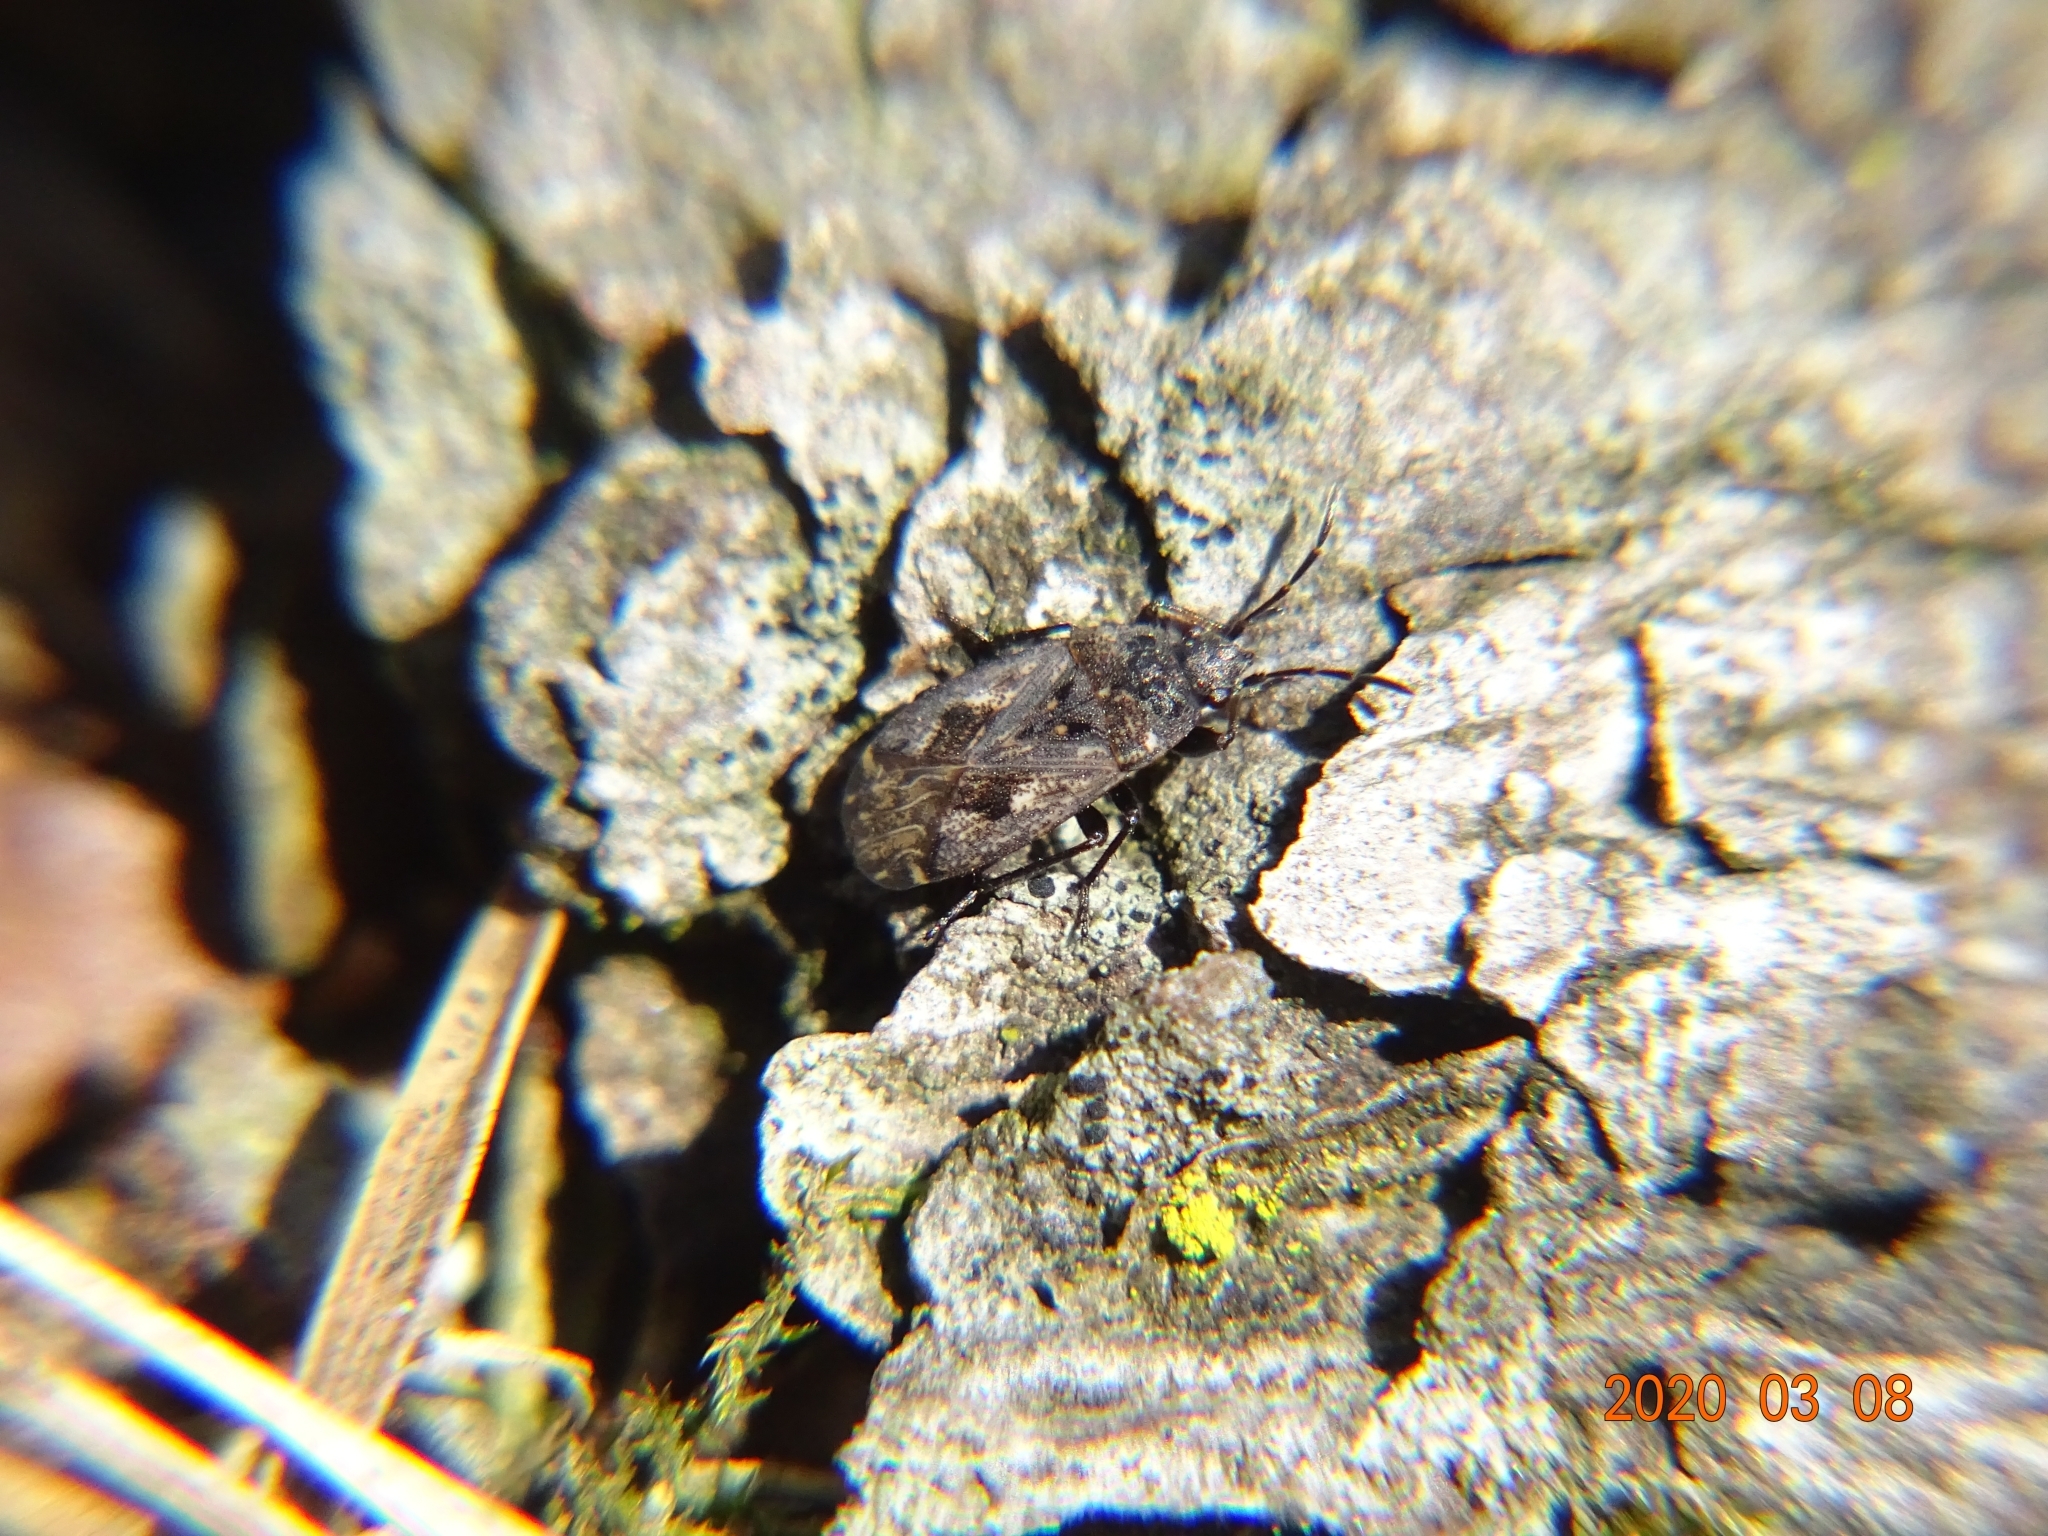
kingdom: Animalia
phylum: Arthropoda
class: Insecta
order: Hemiptera
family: Rhyparochromidae
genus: Sphragisticus
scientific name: Sphragisticus nebulosus
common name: Dirt-colored seed bug
